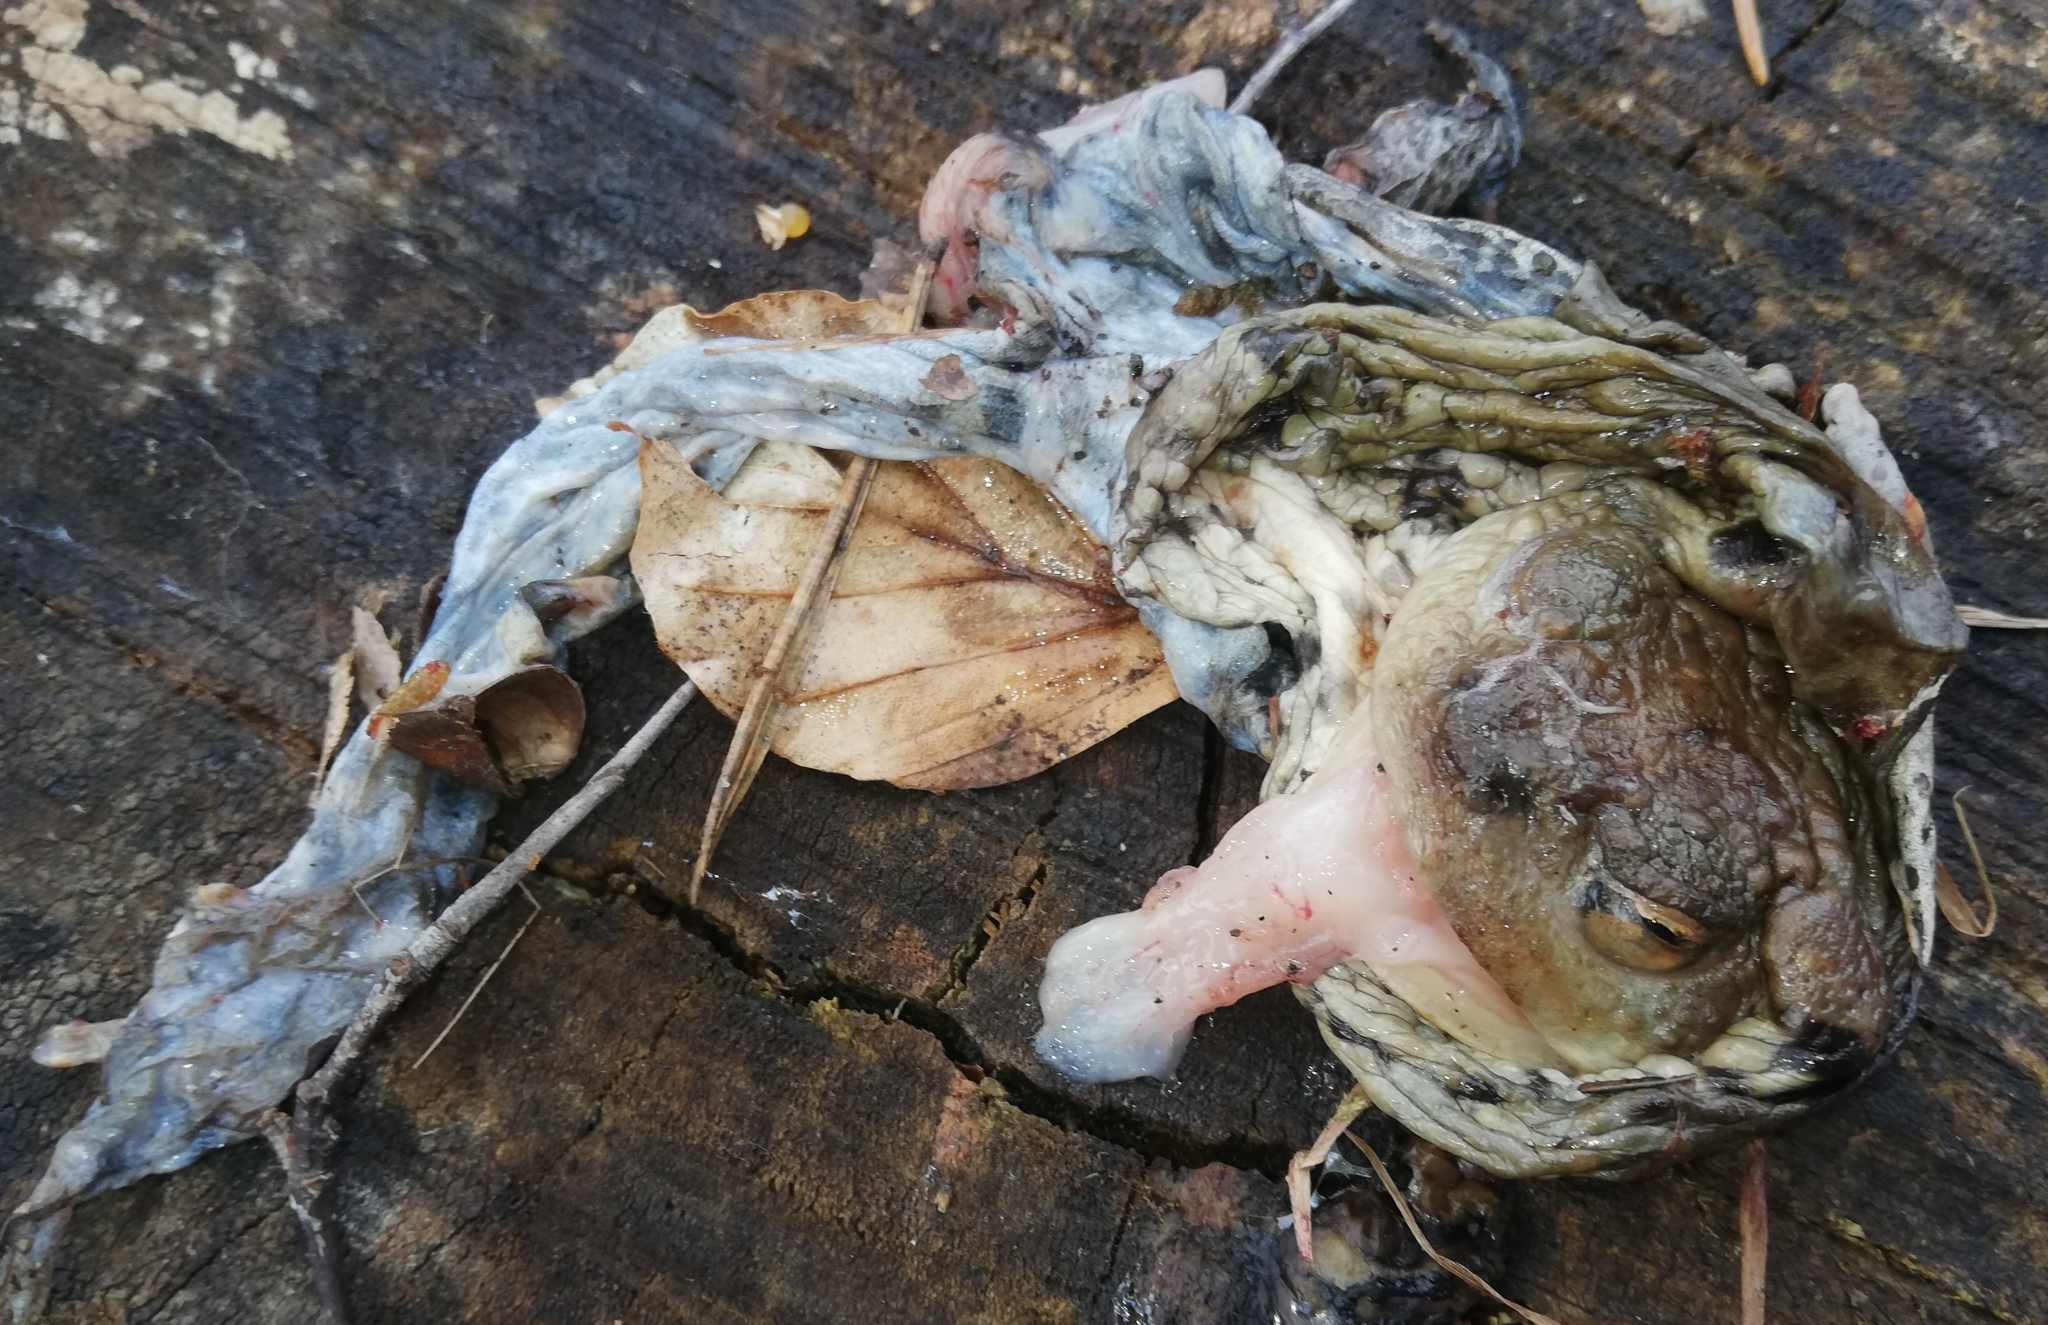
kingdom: Animalia
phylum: Chordata
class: Amphibia
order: Anura
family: Bufonidae
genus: Bufo
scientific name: Bufo bufo
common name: Common toad
